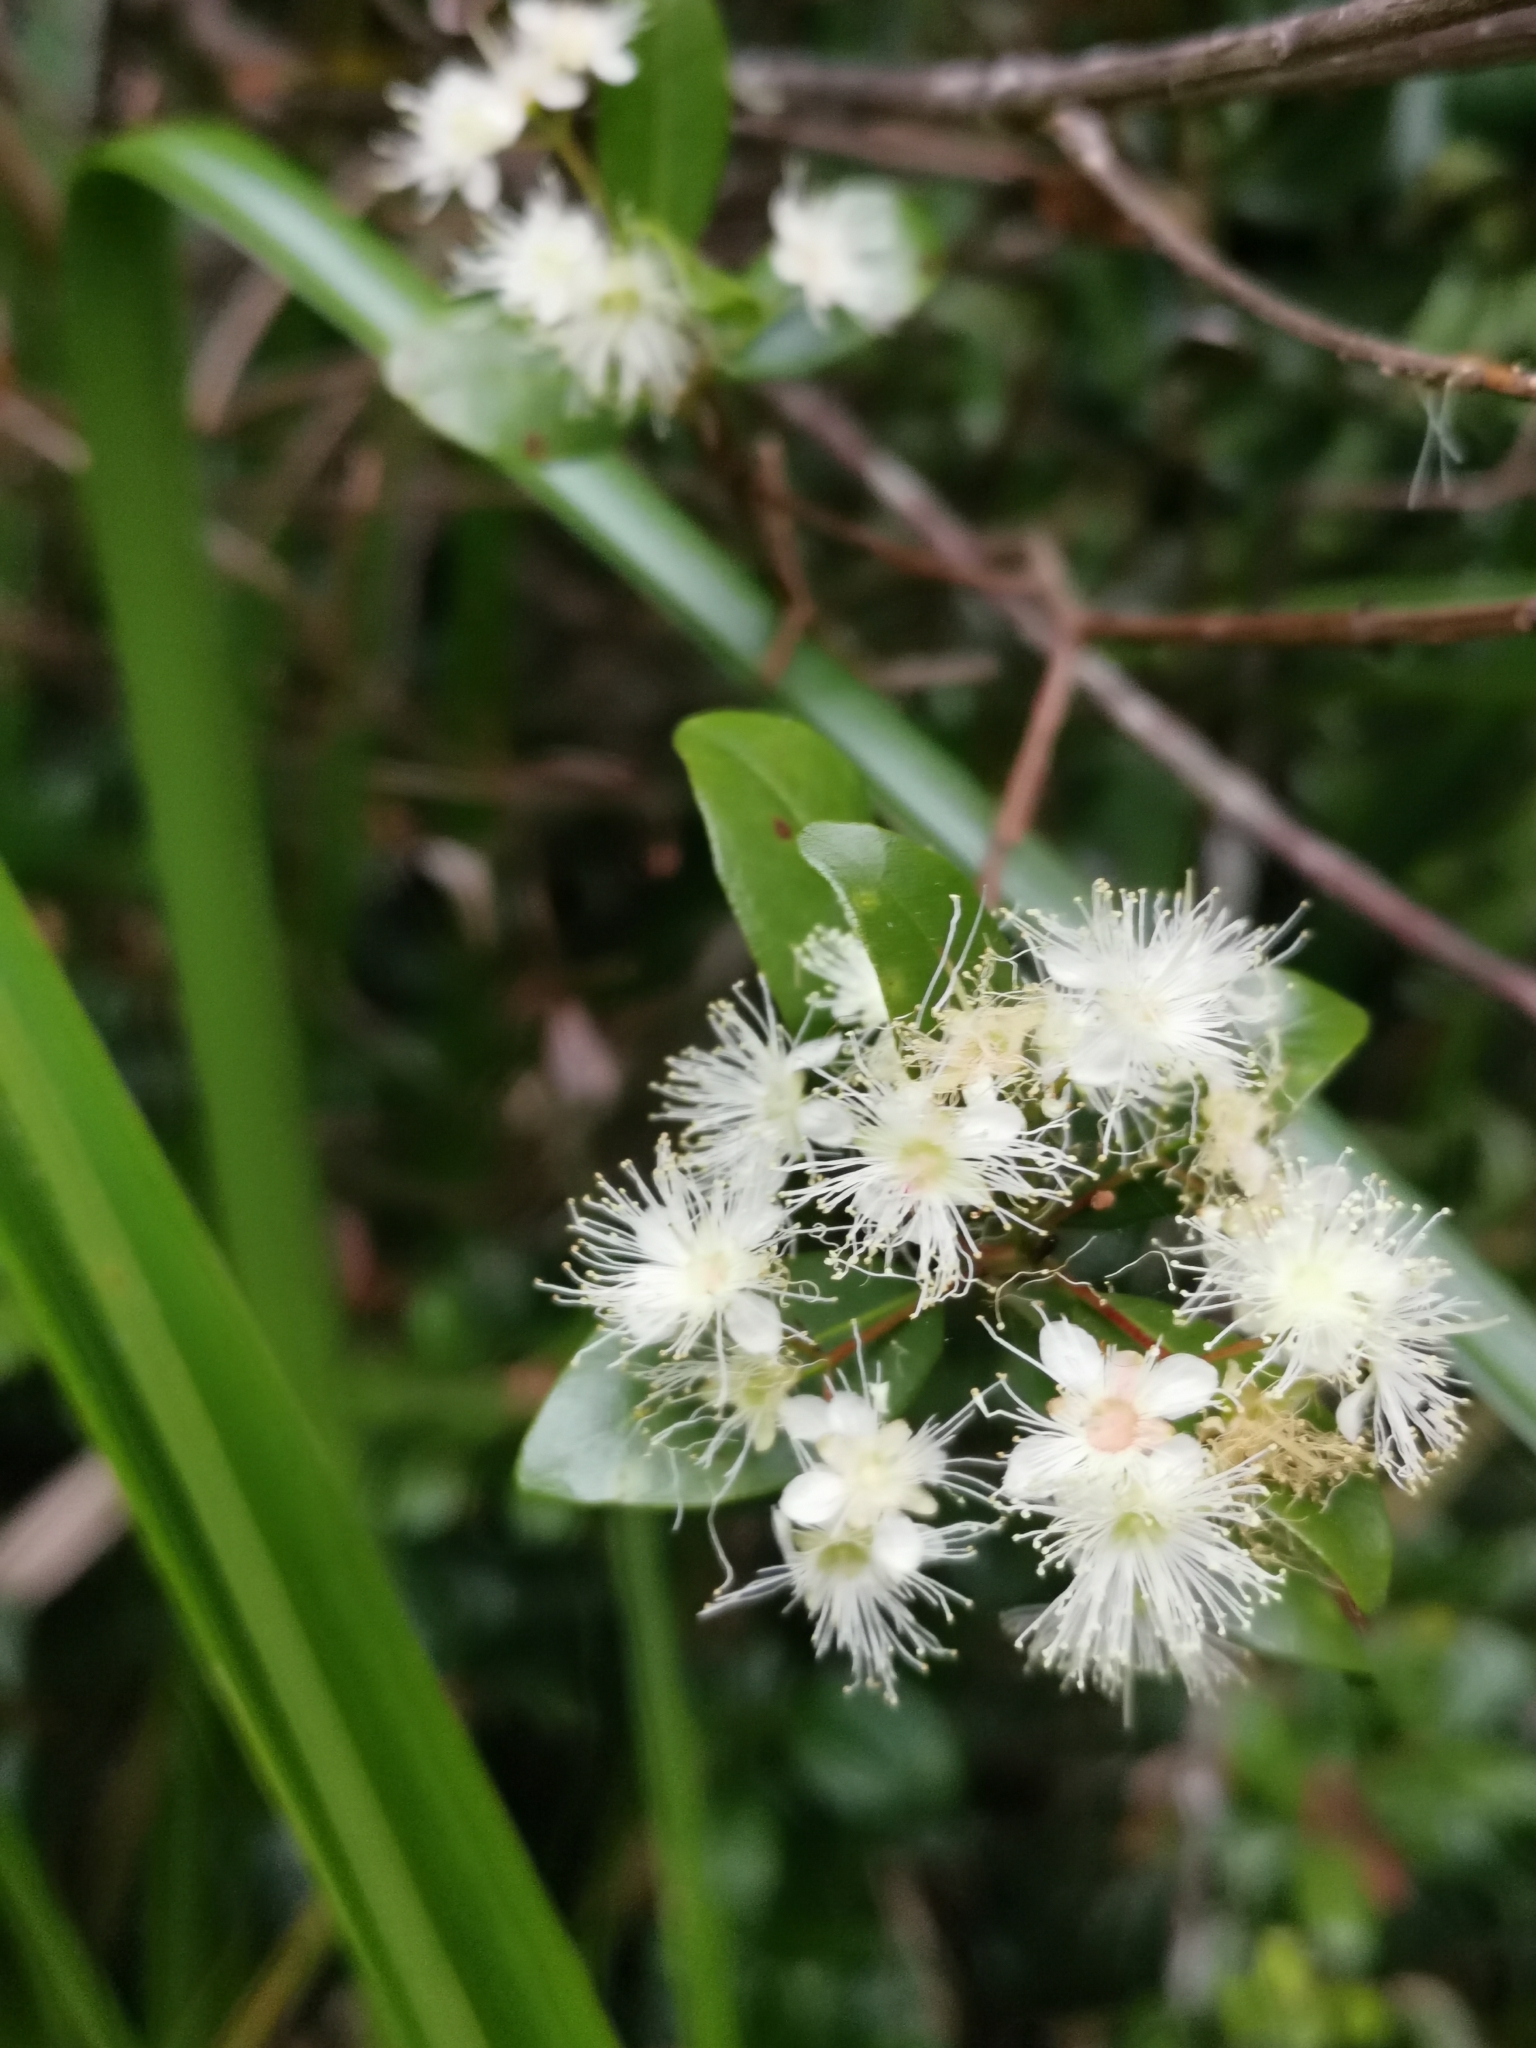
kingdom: Plantae
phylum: Tracheophyta
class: Magnoliopsida
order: Myrtales
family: Myrtaceae
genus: Blepharocalyx
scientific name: Blepharocalyx cruckshanksii
